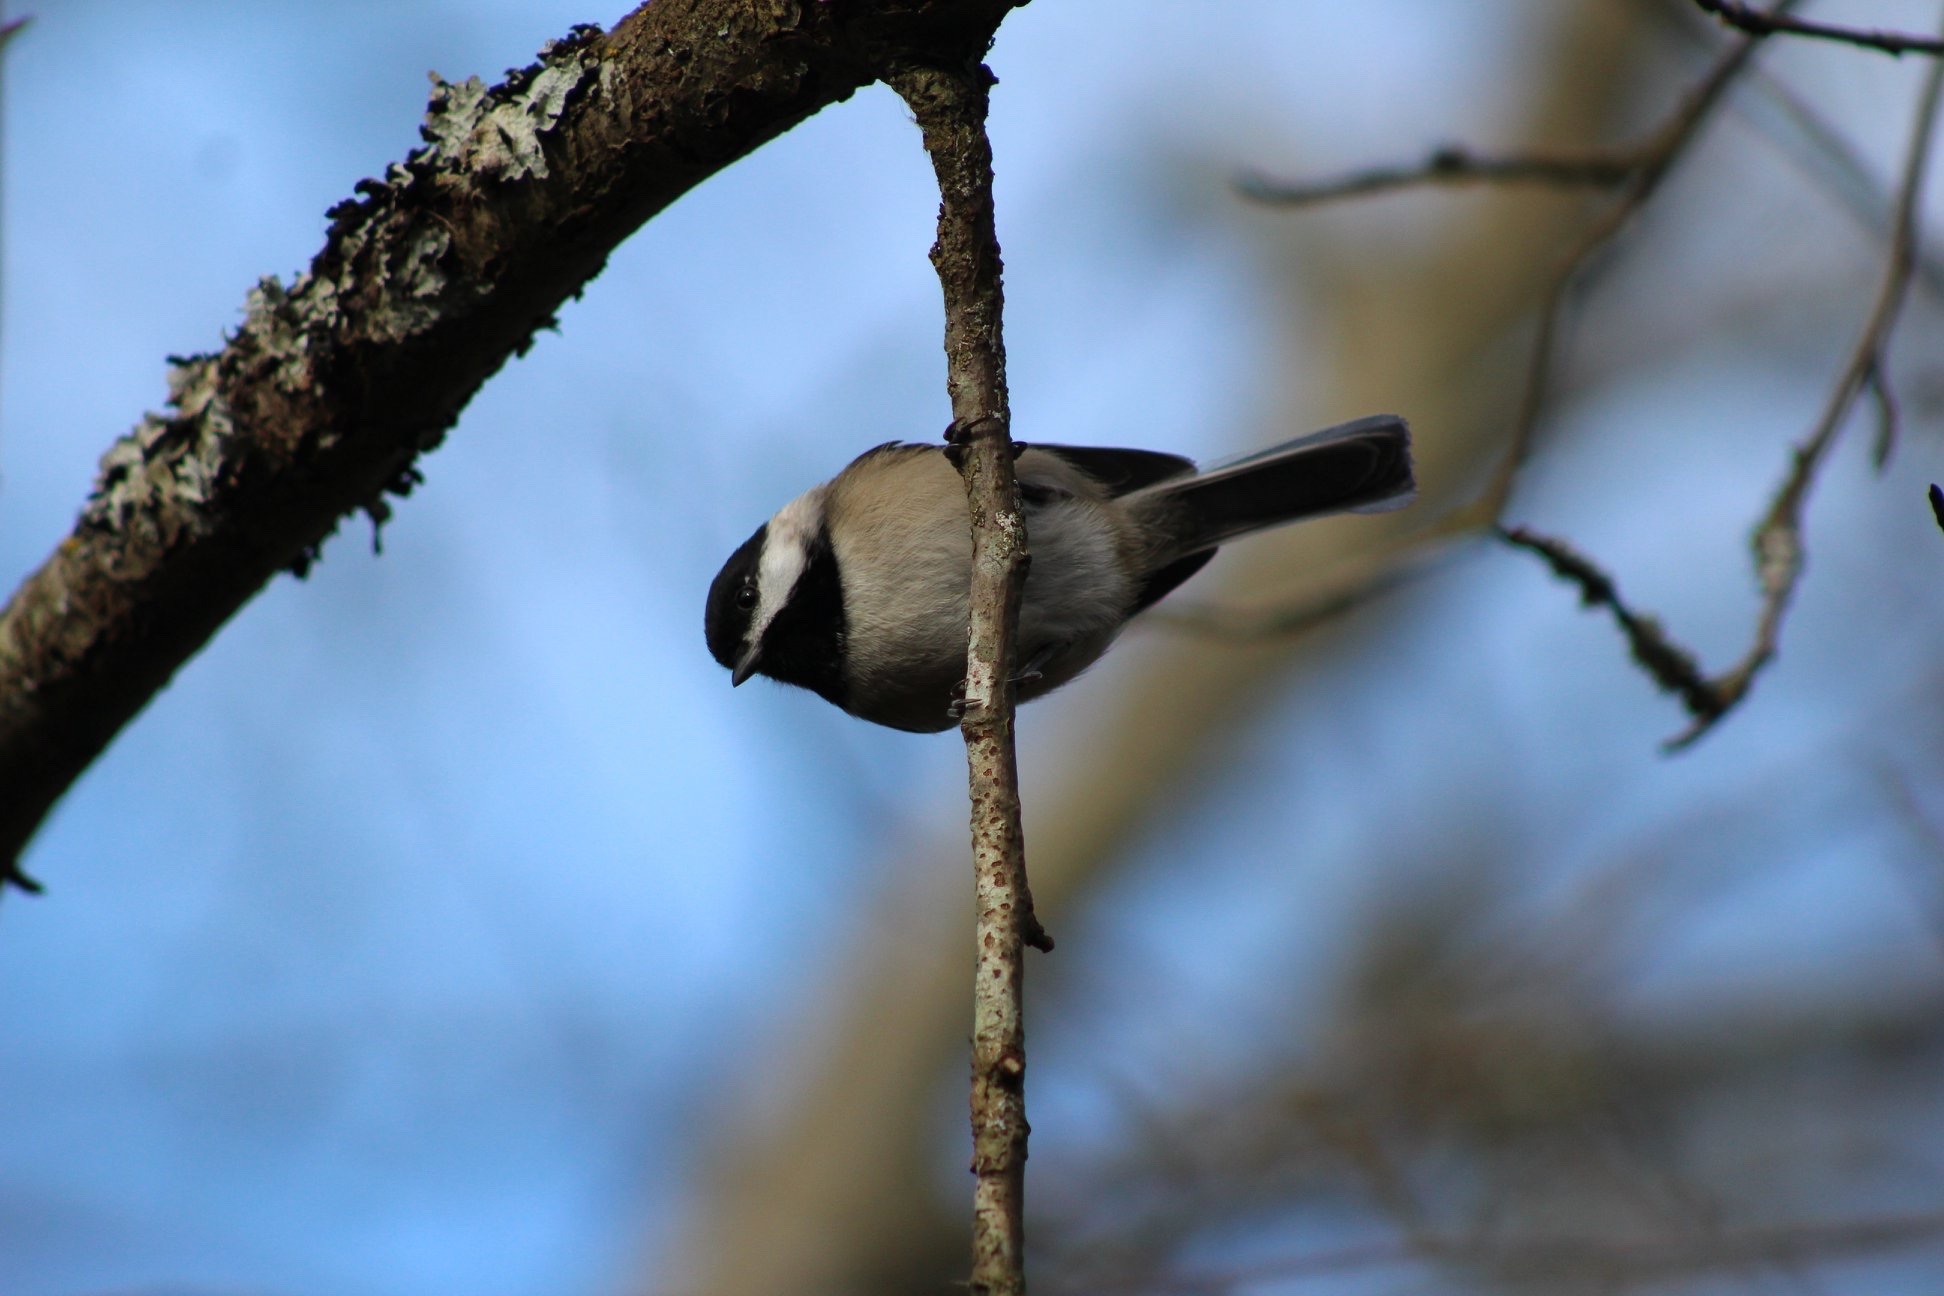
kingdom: Animalia
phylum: Chordata
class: Aves
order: Passeriformes
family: Paridae
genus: Poecile
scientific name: Poecile atricapillus
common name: Black-capped chickadee
